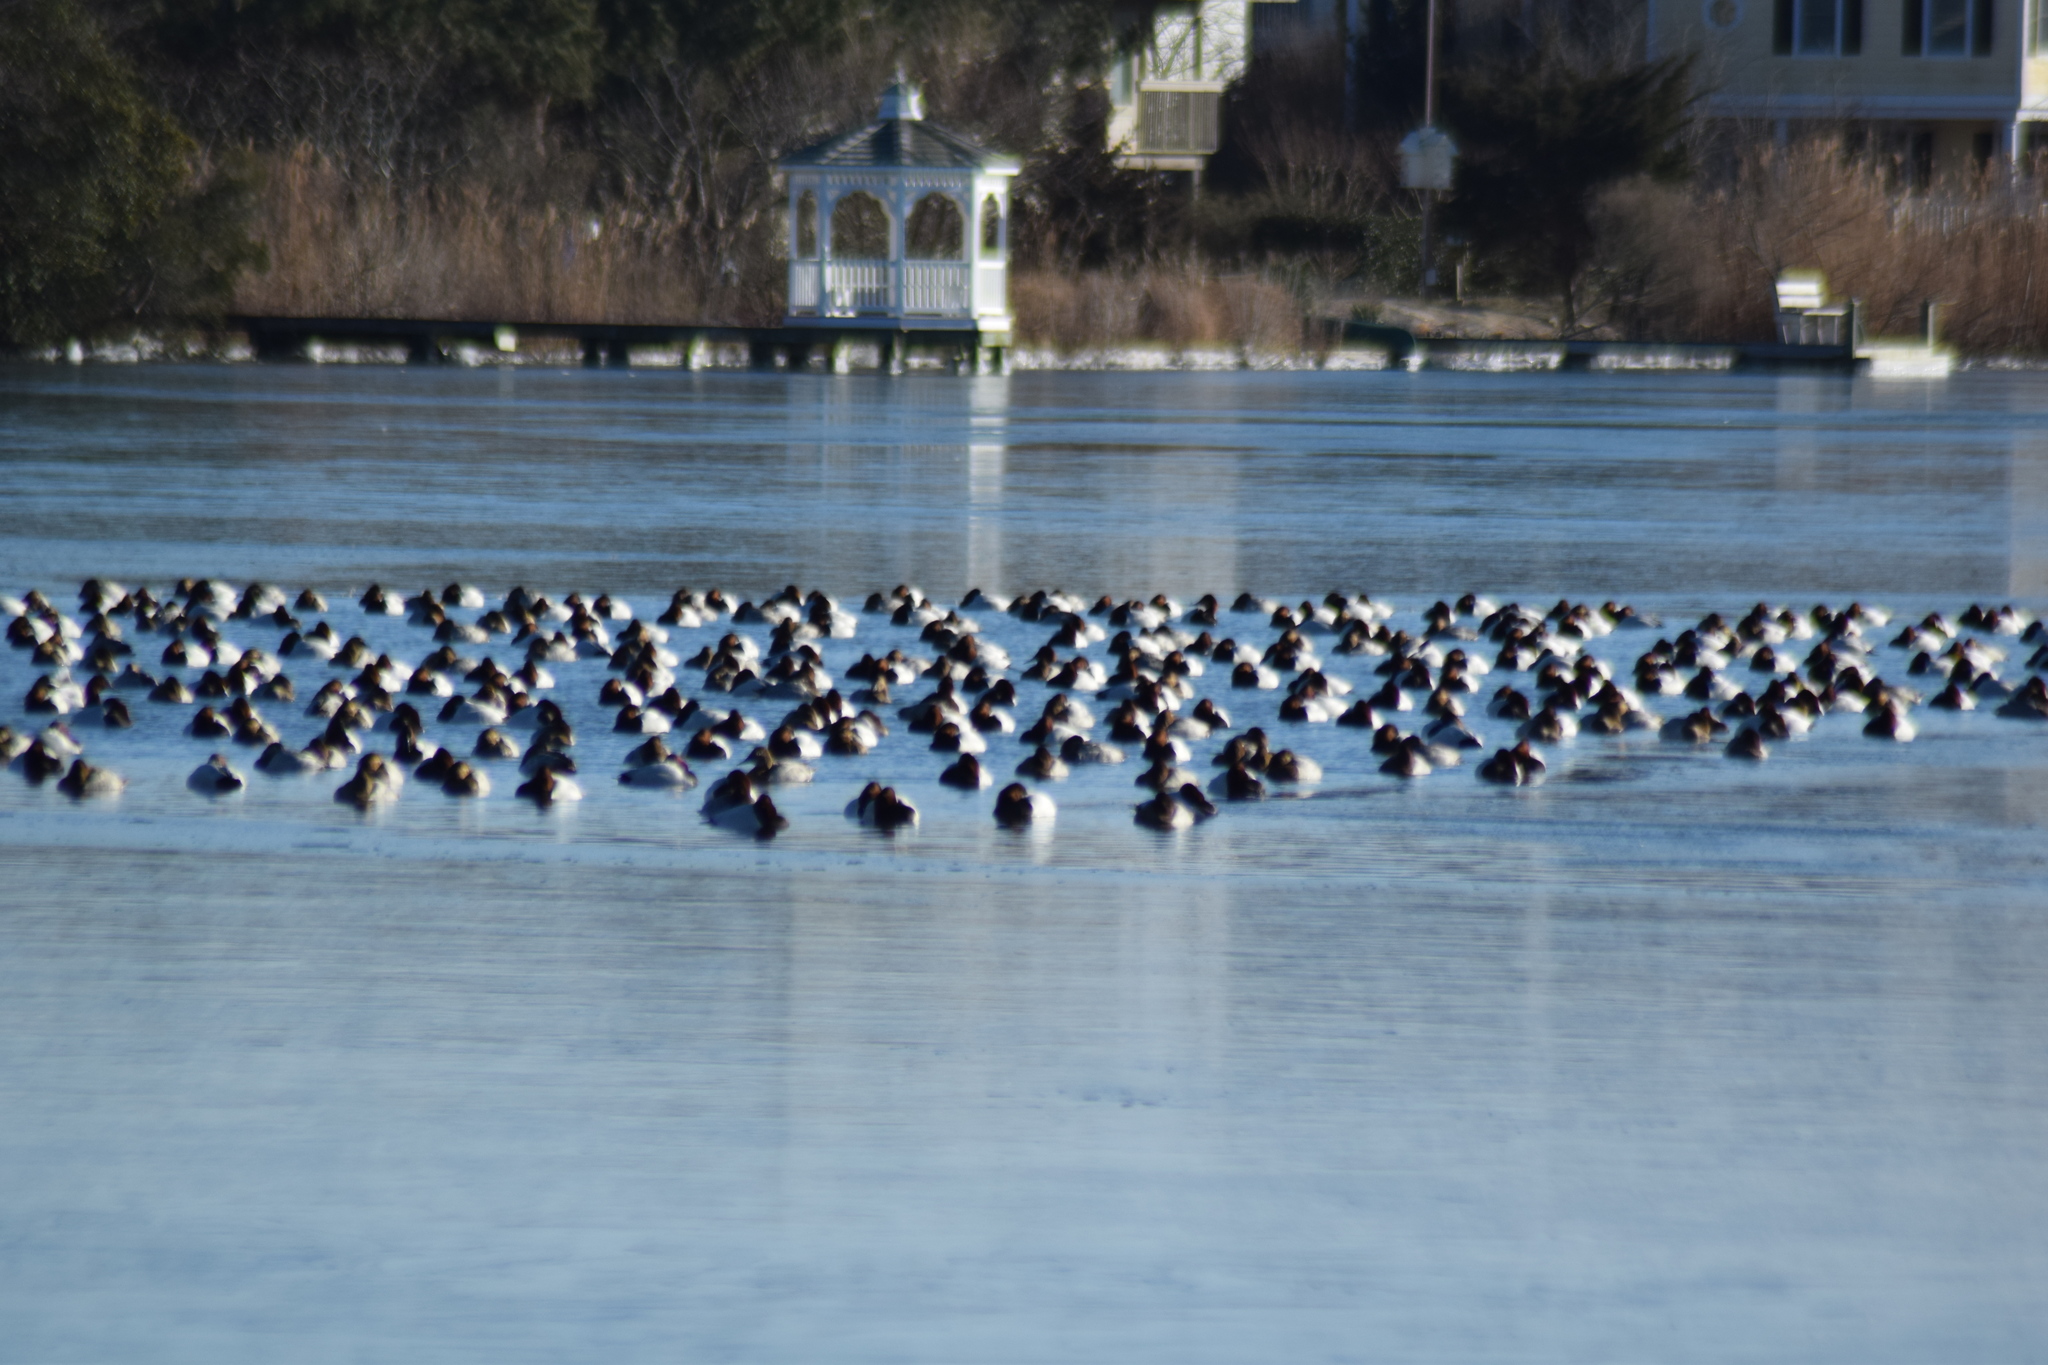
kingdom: Animalia
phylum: Chordata
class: Aves
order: Anseriformes
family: Anatidae
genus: Aythya
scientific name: Aythya valisineria
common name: Canvasback
